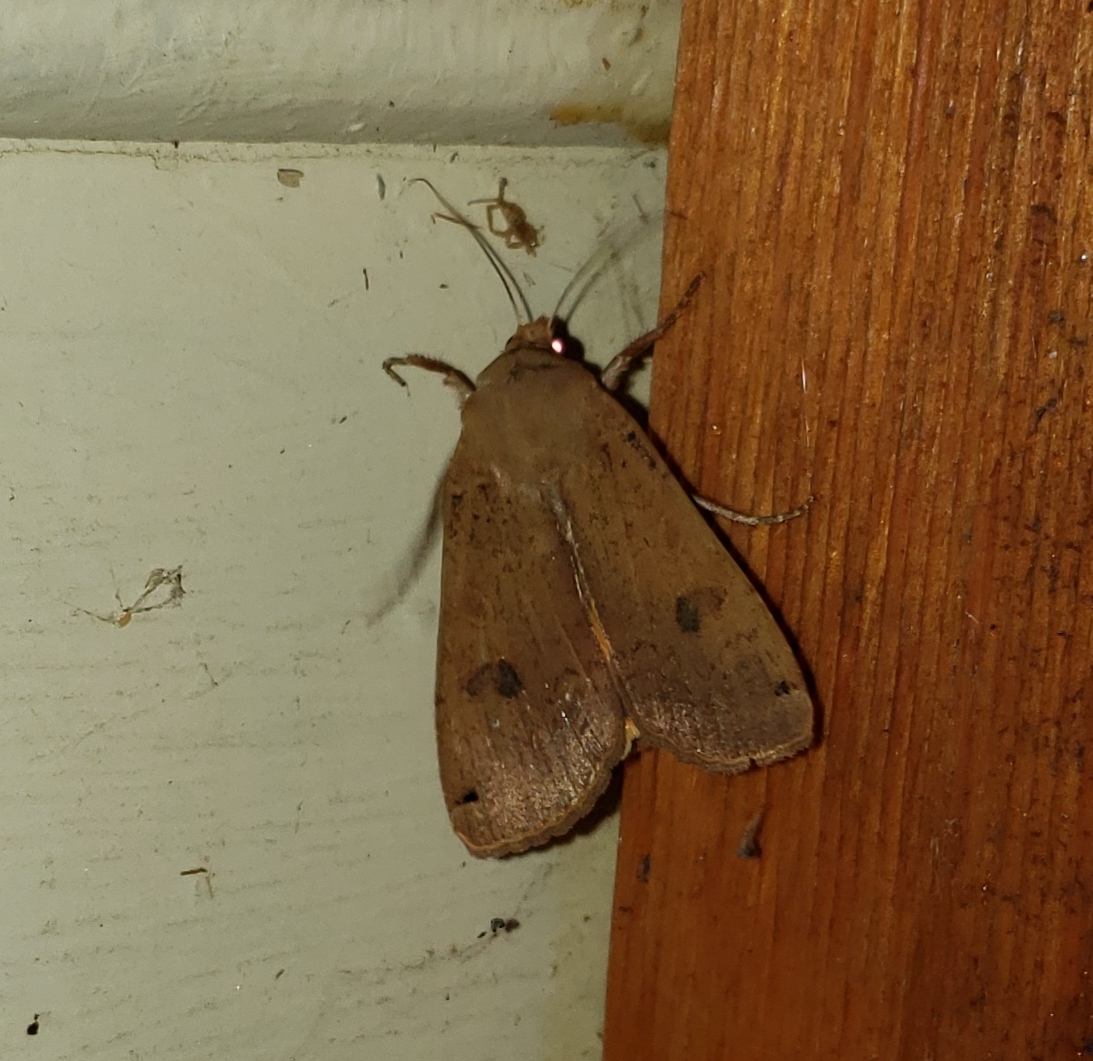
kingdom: Animalia
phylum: Arthropoda
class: Insecta
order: Lepidoptera
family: Noctuidae
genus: Noctua
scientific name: Noctua pronuba
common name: Large yellow underwing
